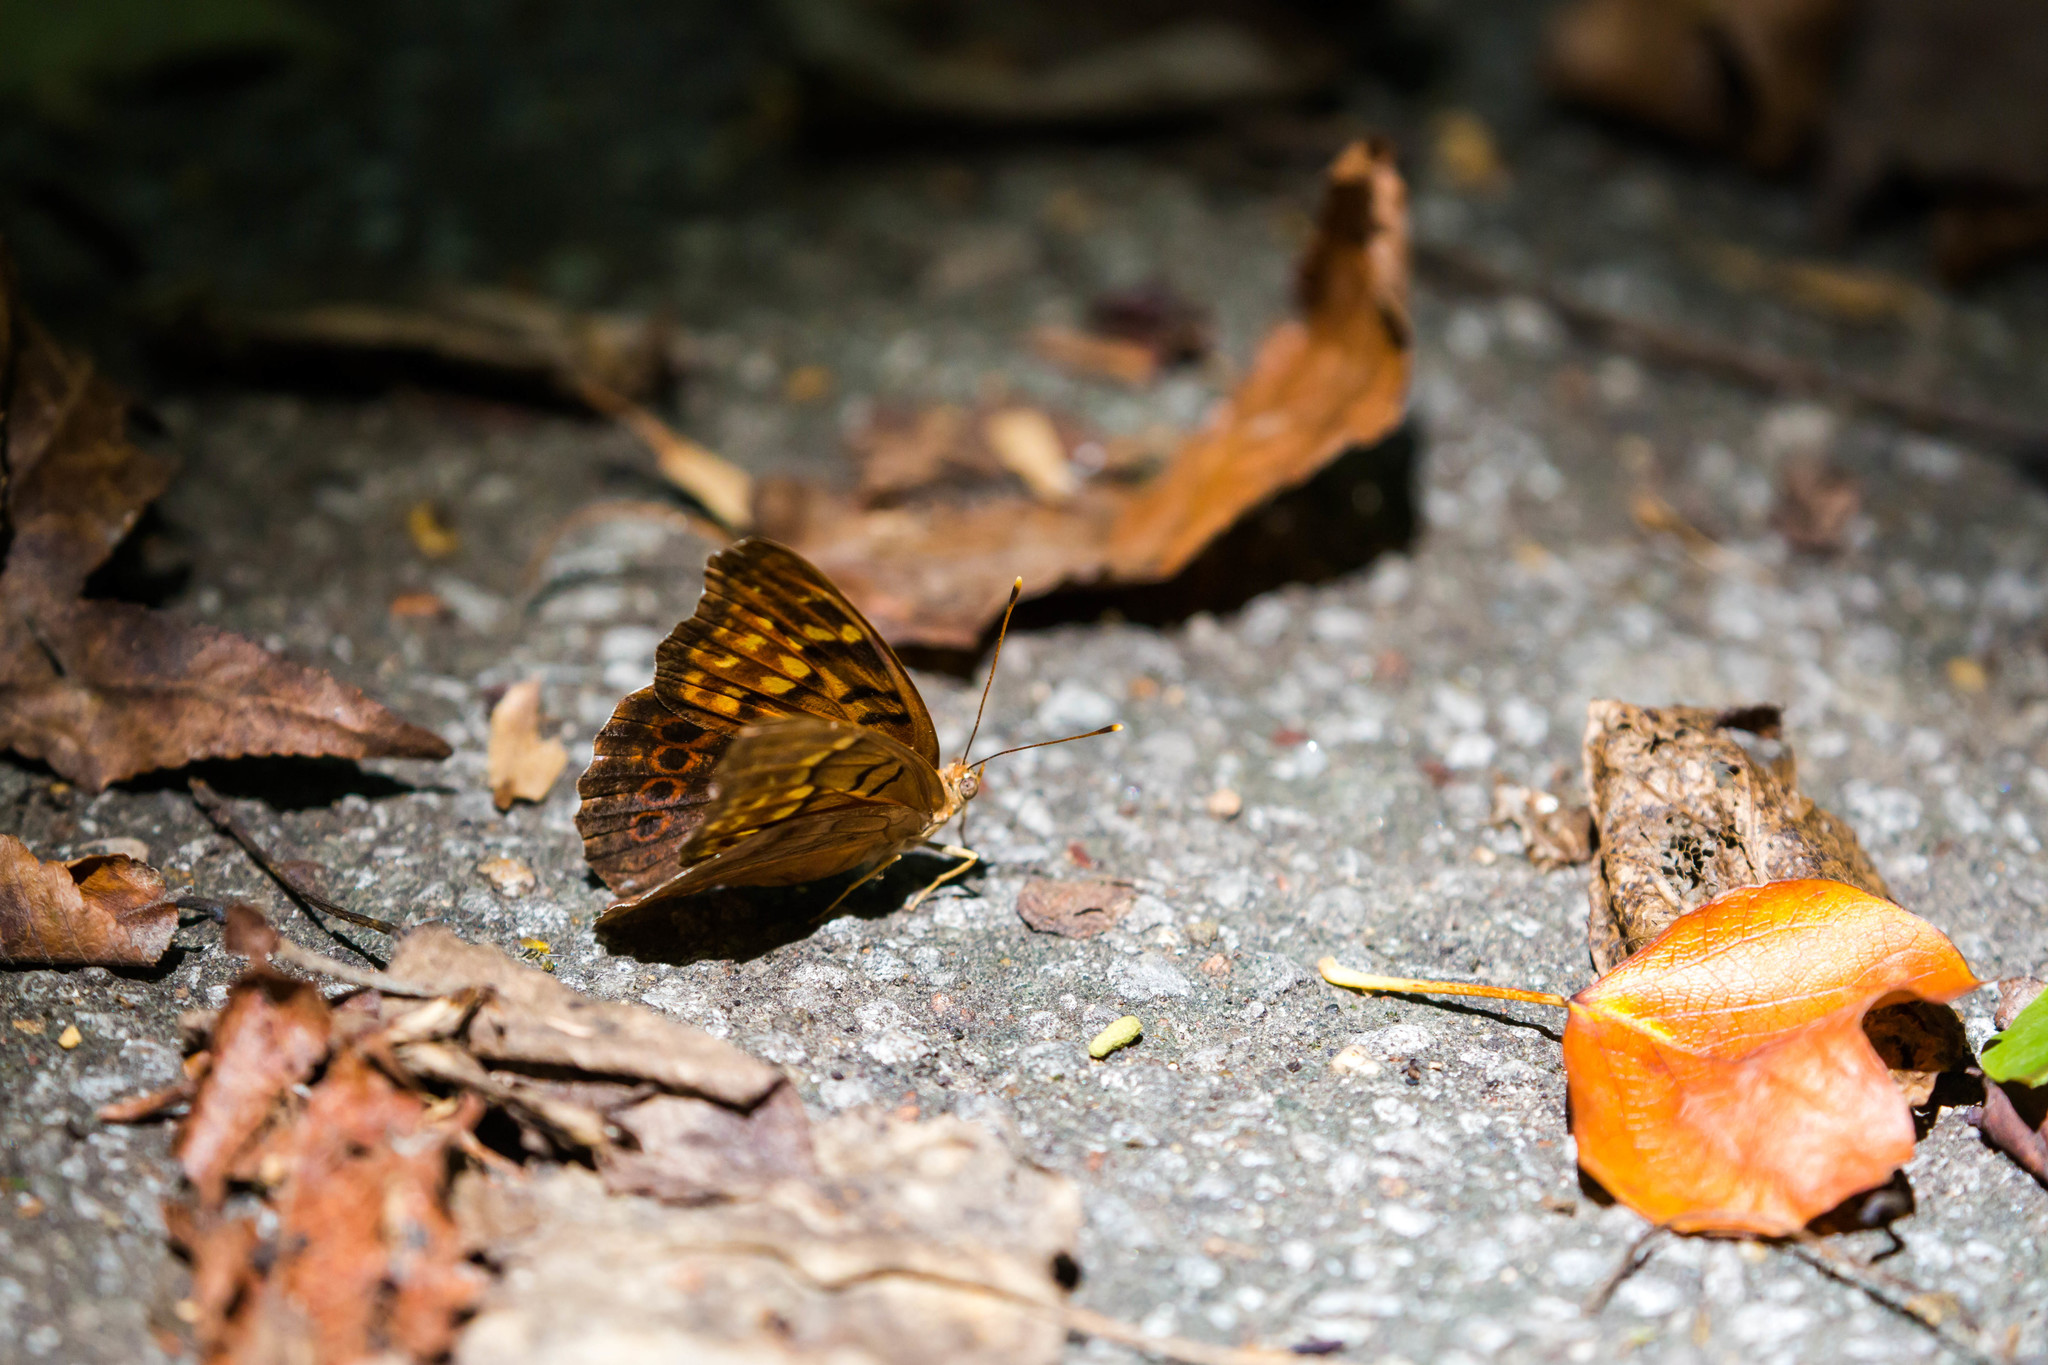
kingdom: Animalia
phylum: Arthropoda
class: Insecta
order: Lepidoptera
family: Nymphalidae
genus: Asterocampa
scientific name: Asterocampa clyton
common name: Tawny emperor
